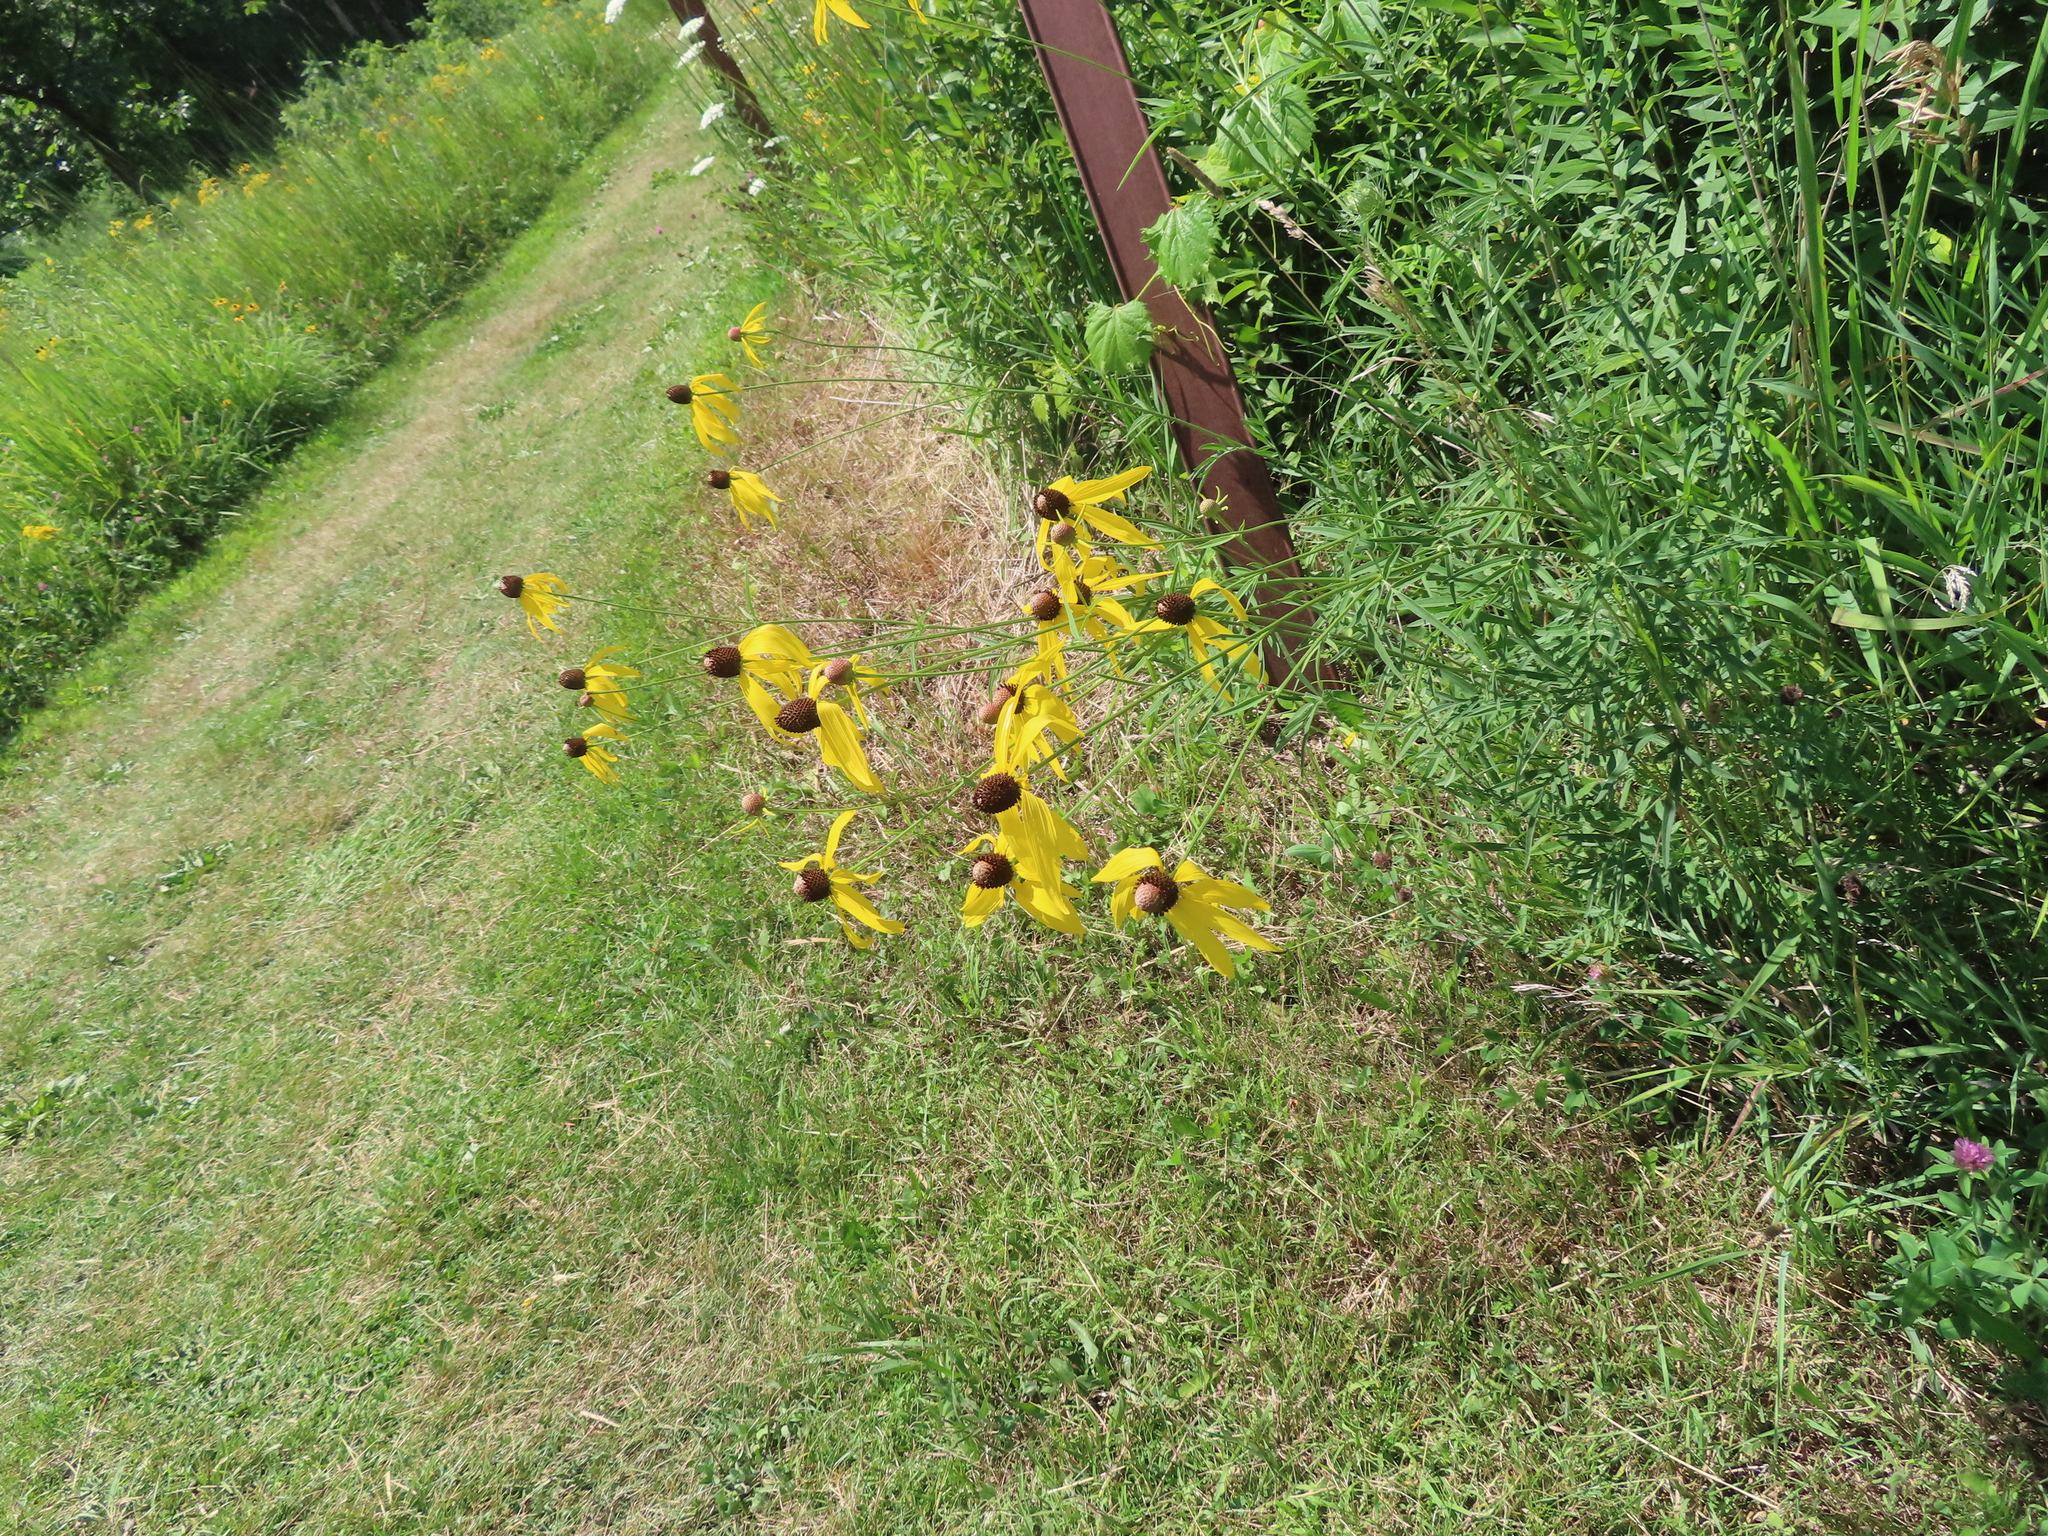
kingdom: Plantae
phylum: Tracheophyta
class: Magnoliopsida
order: Asterales
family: Asteraceae
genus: Ratibida
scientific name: Ratibida pinnata
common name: Drooping prairie-coneflower
